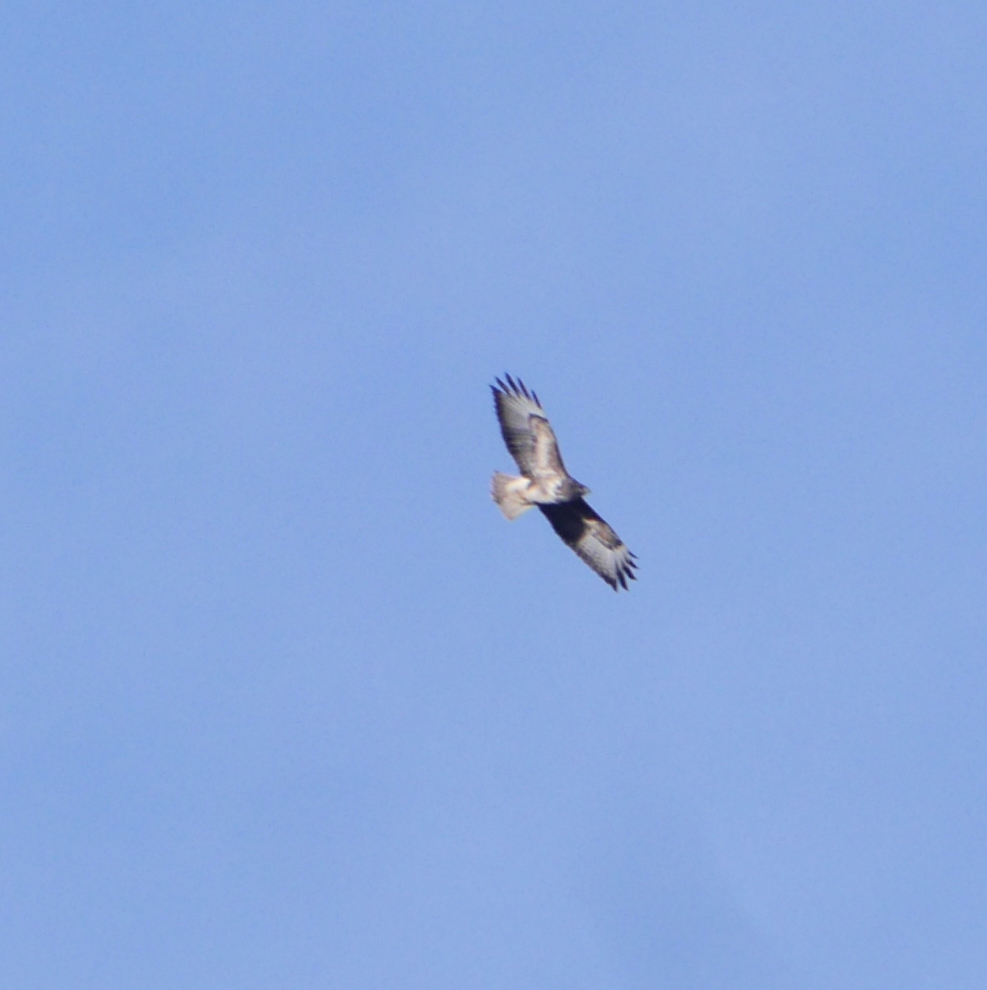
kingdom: Animalia
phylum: Chordata
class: Aves
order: Accipitriformes
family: Accipitridae
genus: Buteo
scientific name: Buteo buteo
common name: Common buzzard
